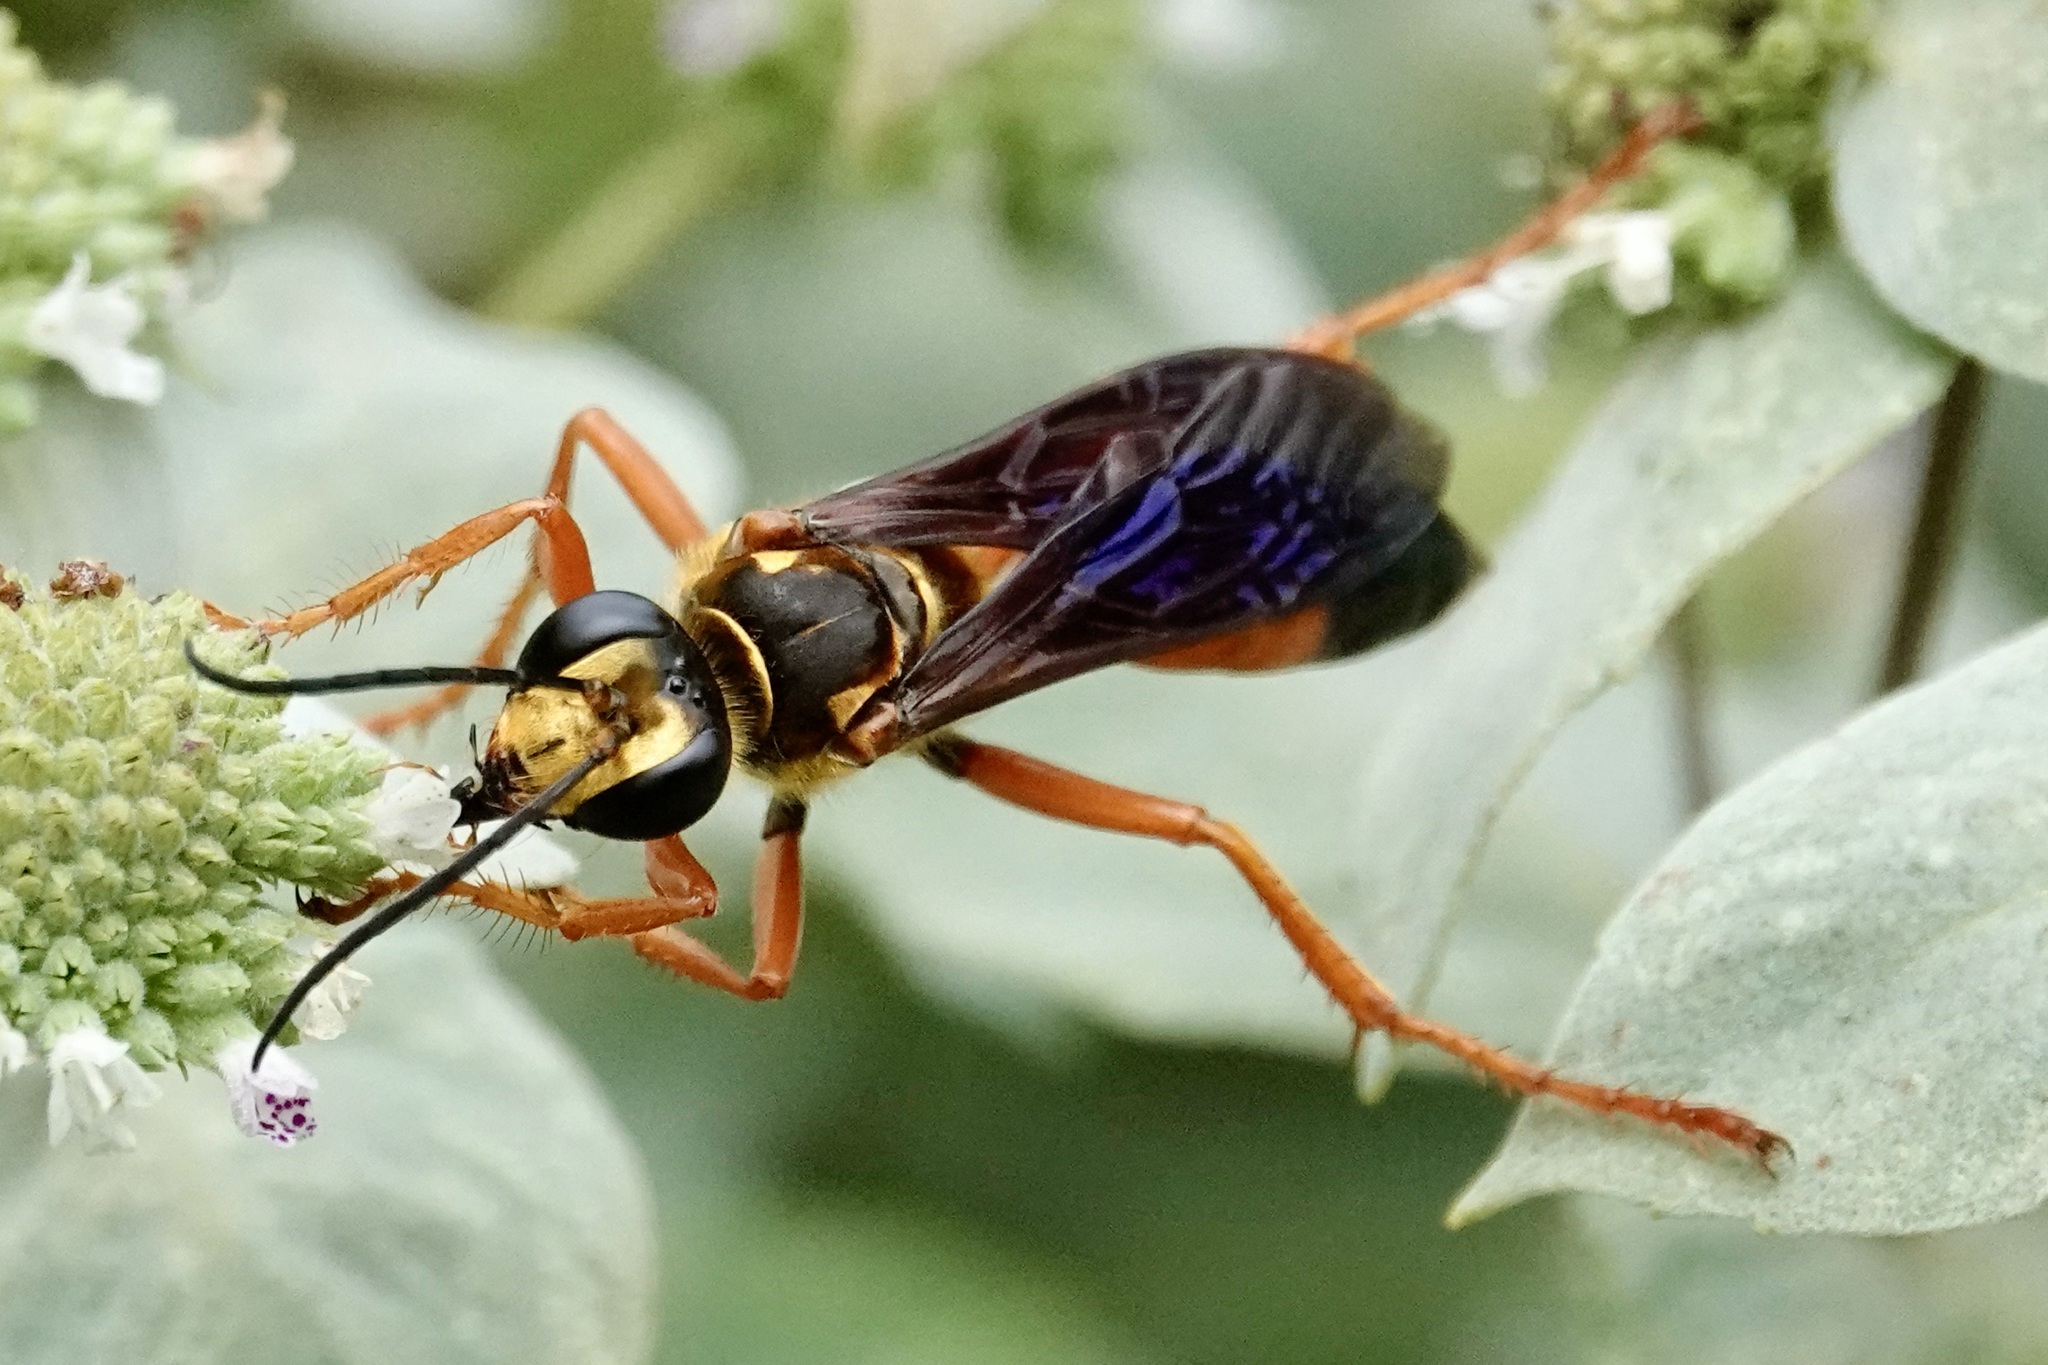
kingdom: Animalia
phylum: Arthropoda
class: Insecta
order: Hymenoptera
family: Sphecidae
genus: Sphex
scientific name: Sphex ichneumoneus
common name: Great golden digger wasp
